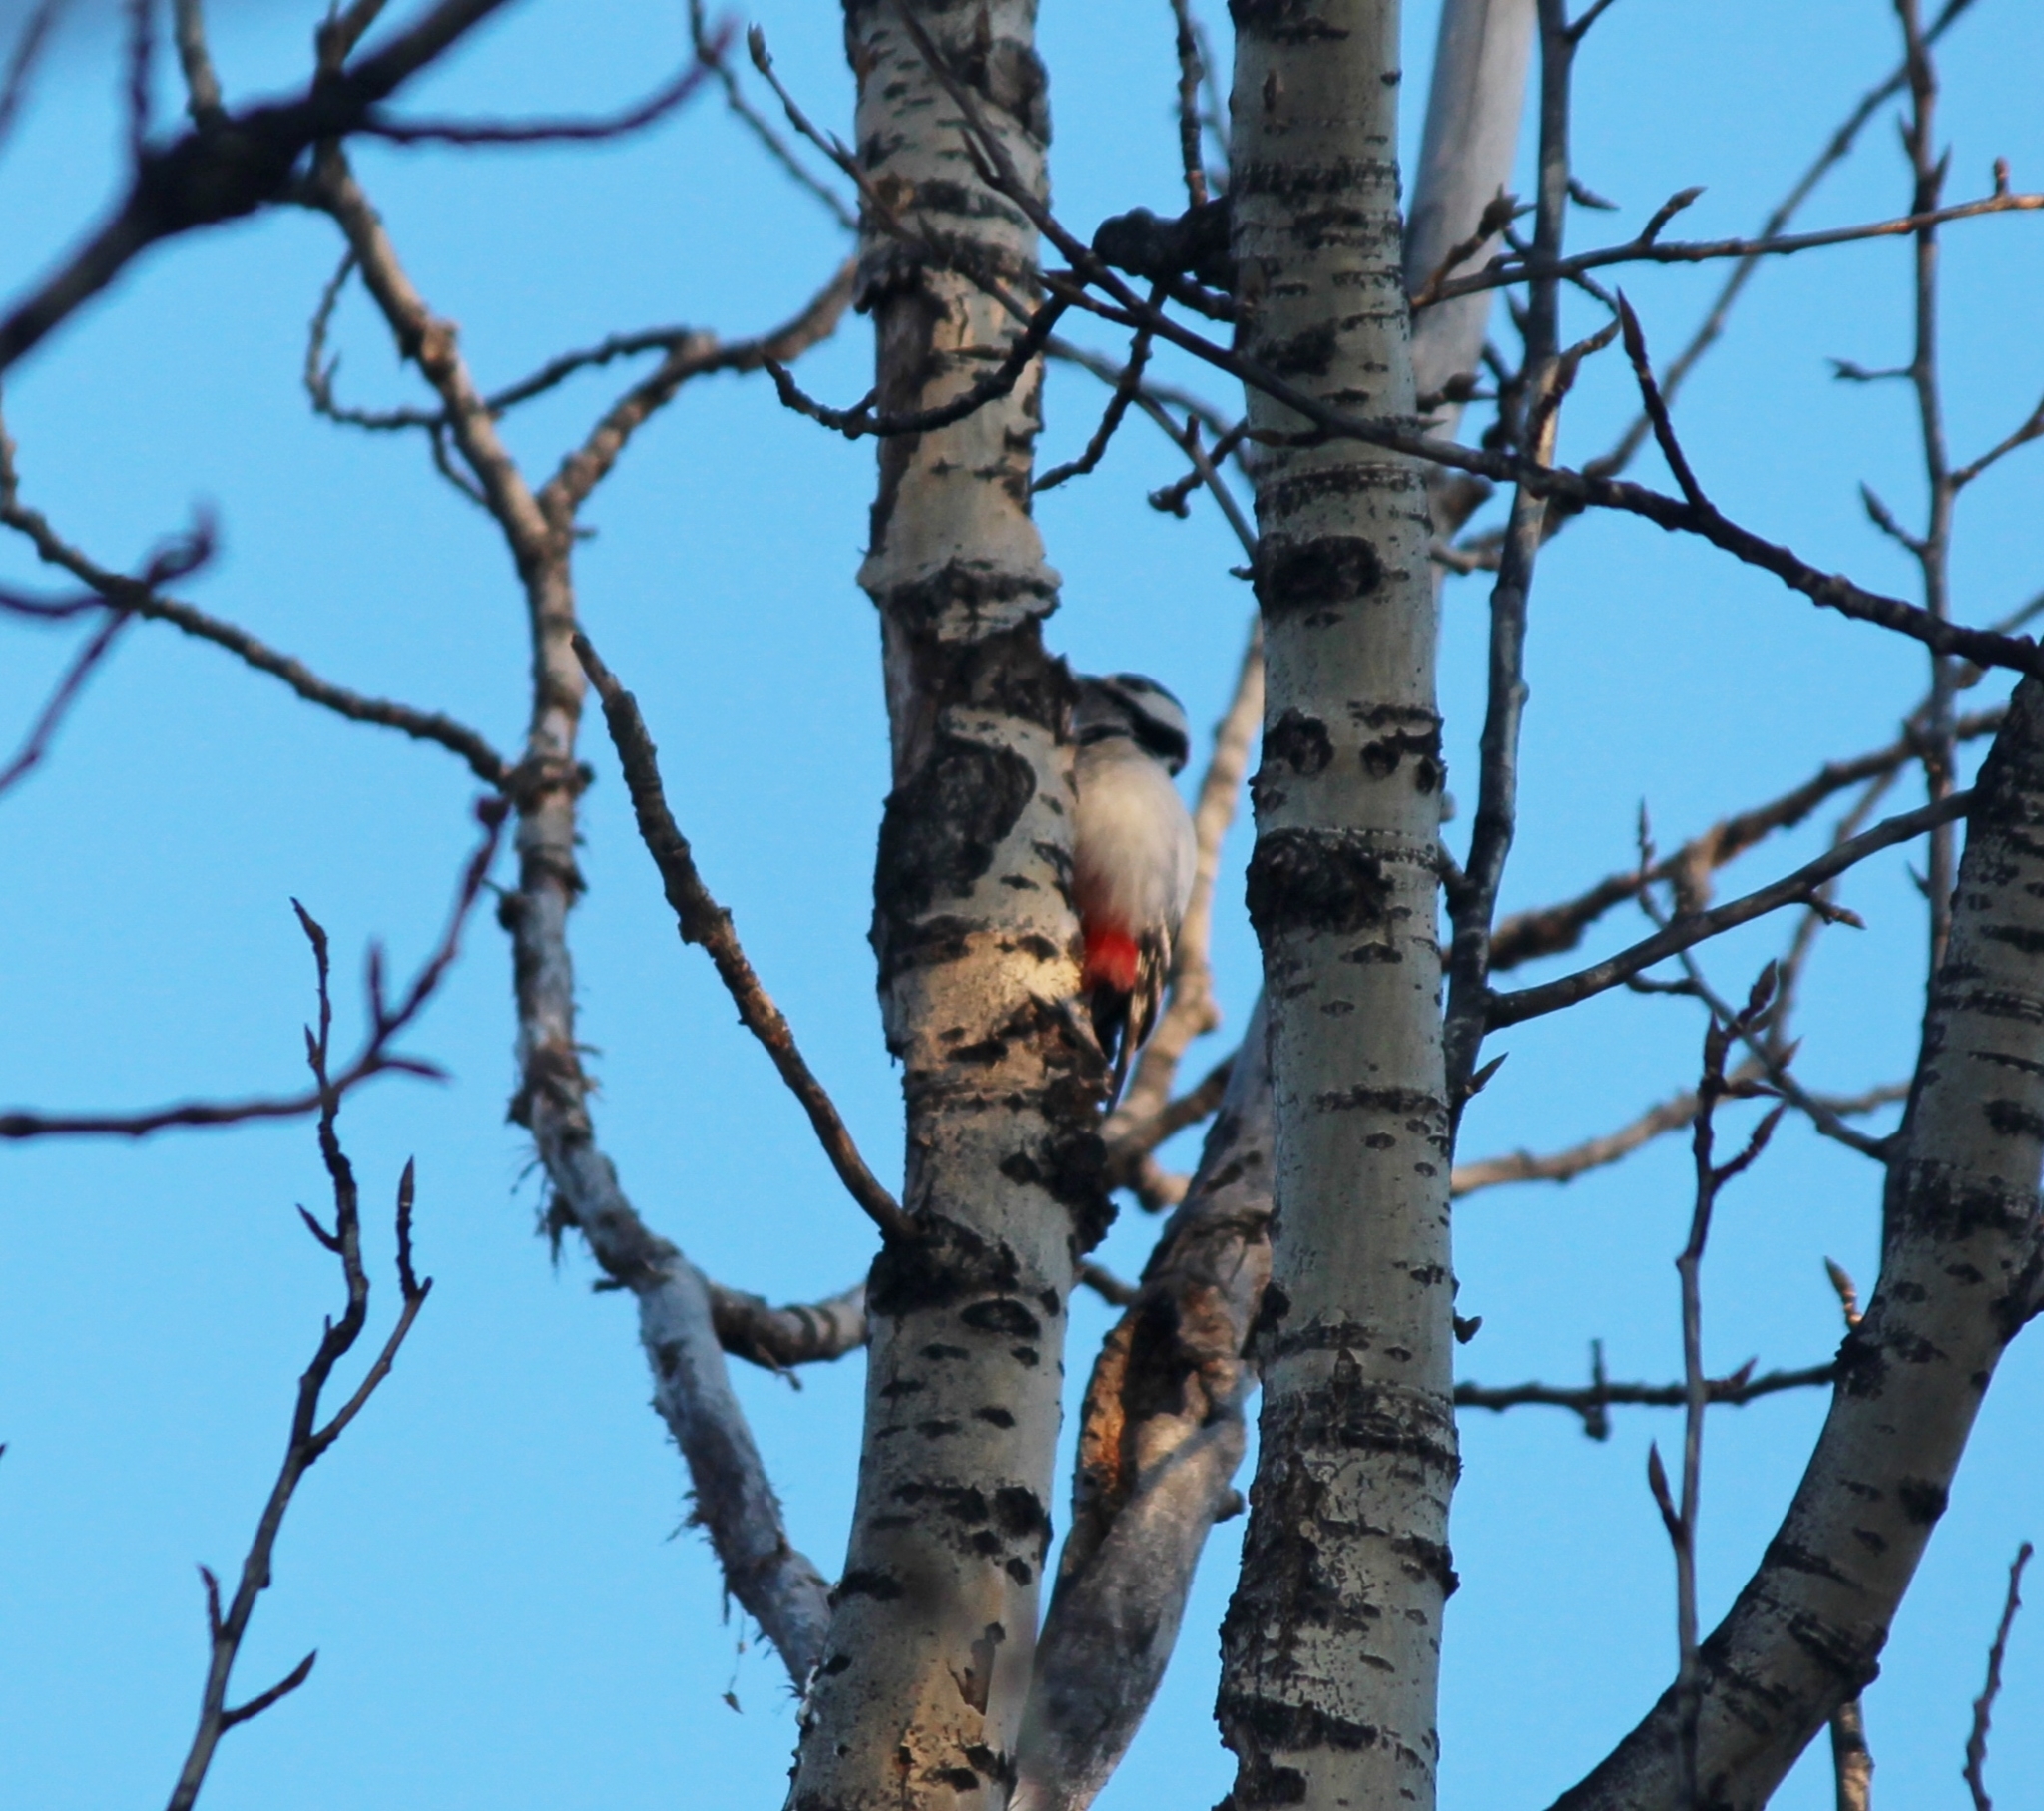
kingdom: Animalia
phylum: Chordata
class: Aves
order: Piciformes
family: Picidae
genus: Dendrocopos
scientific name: Dendrocopos major
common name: Great spotted woodpecker
